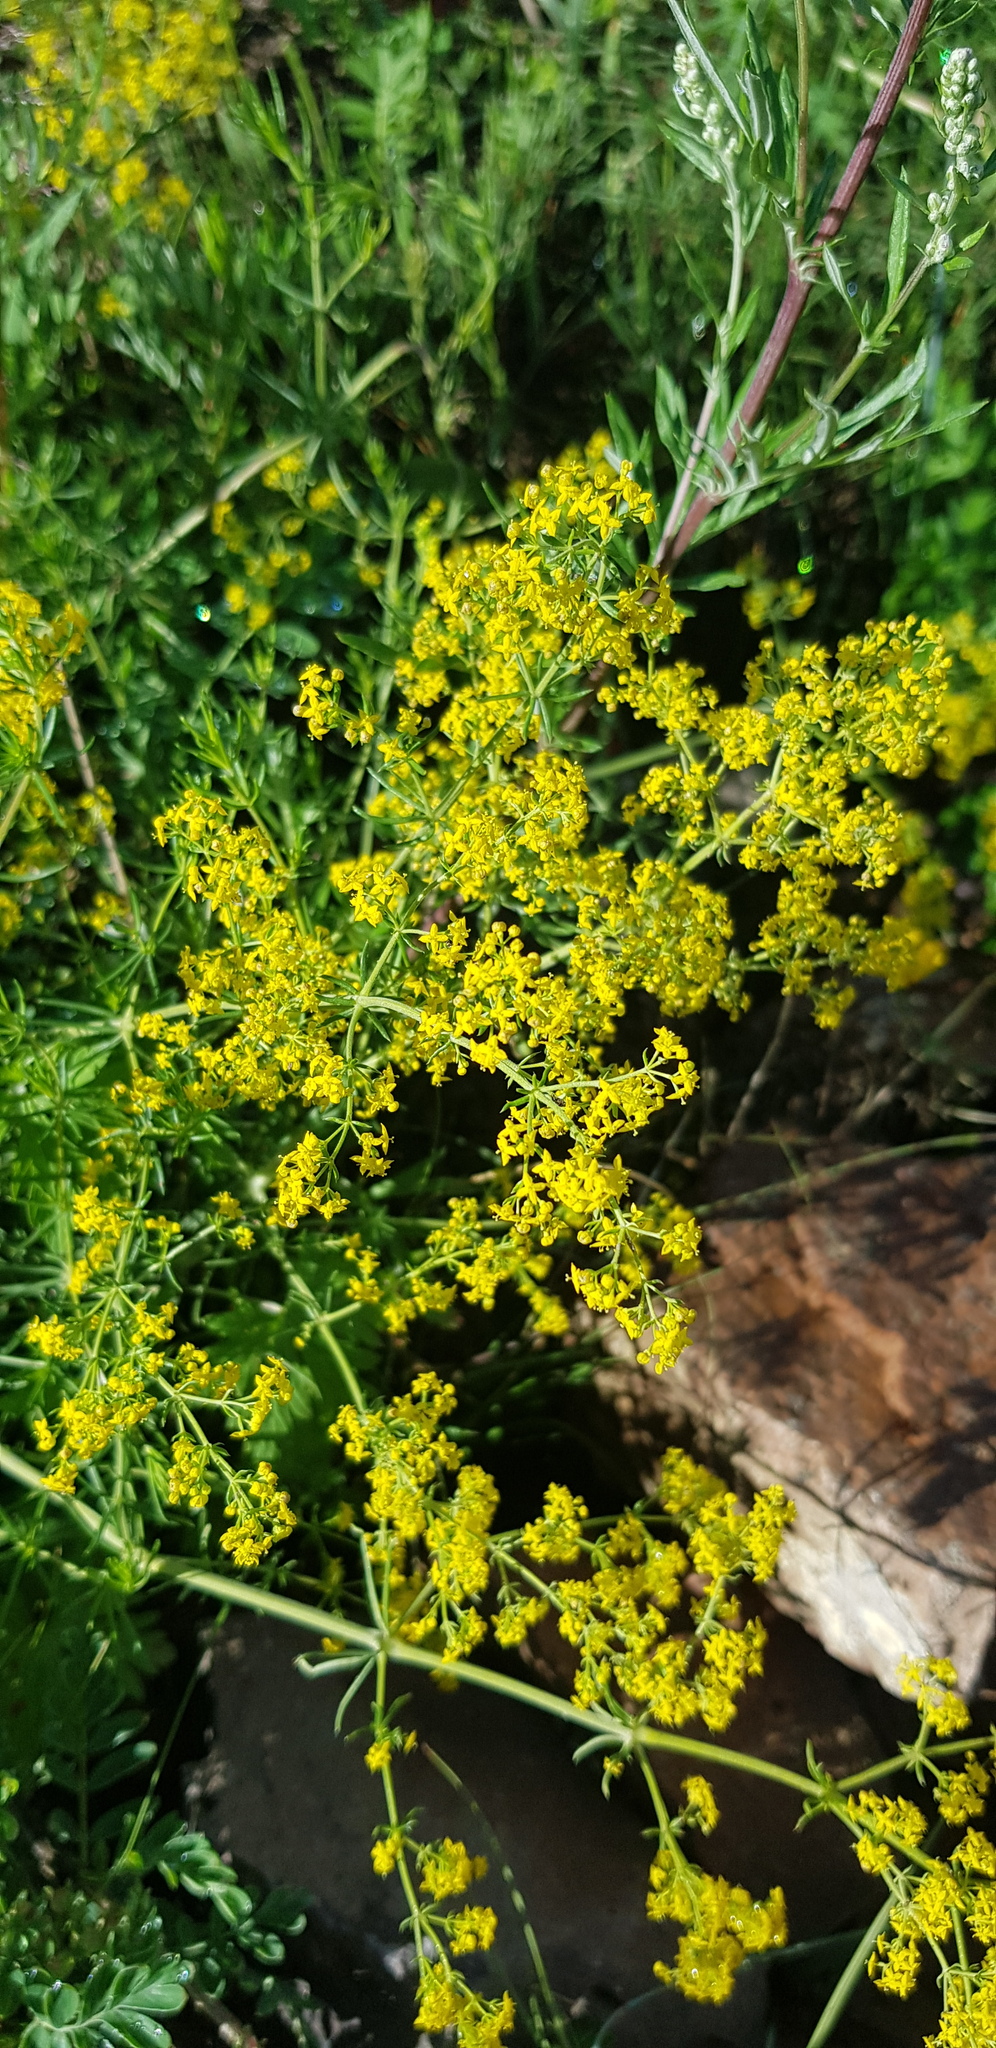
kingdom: Plantae
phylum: Tracheophyta
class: Magnoliopsida
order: Gentianales
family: Rubiaceae
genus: Galium
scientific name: Galium verum
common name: Lady's bedstraw
